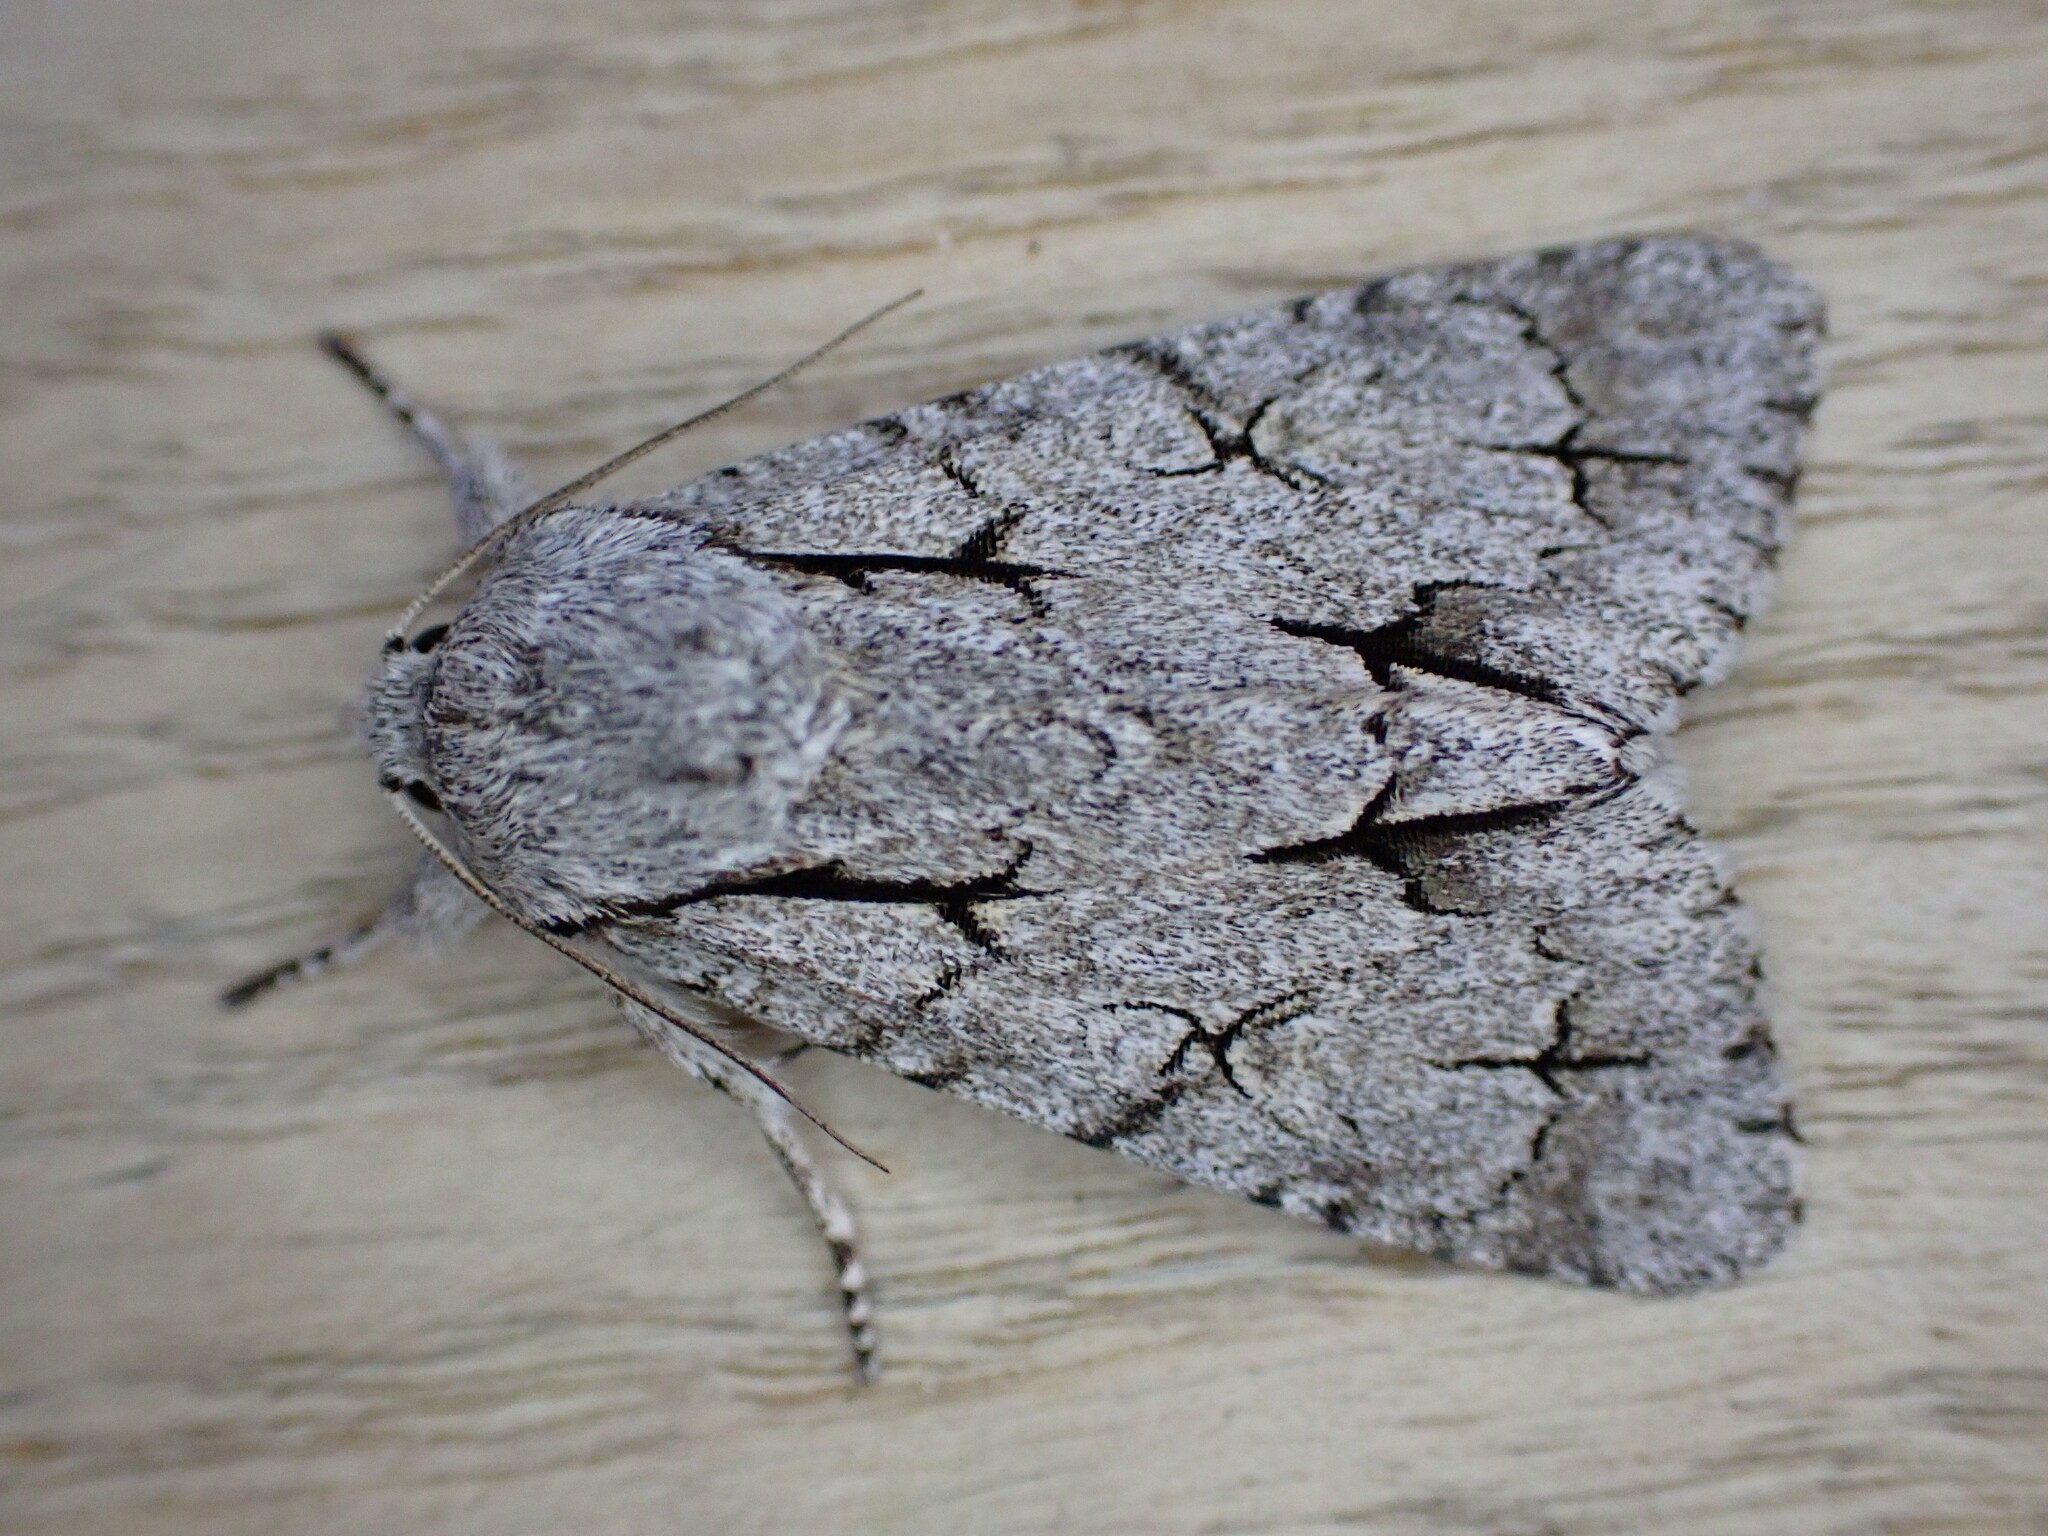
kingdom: Animalia
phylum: Arthropoda
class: Insecta
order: Lepidoptera
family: Noctuidae
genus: Acronicta
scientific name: Acronicta psi
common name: Grey dagger
